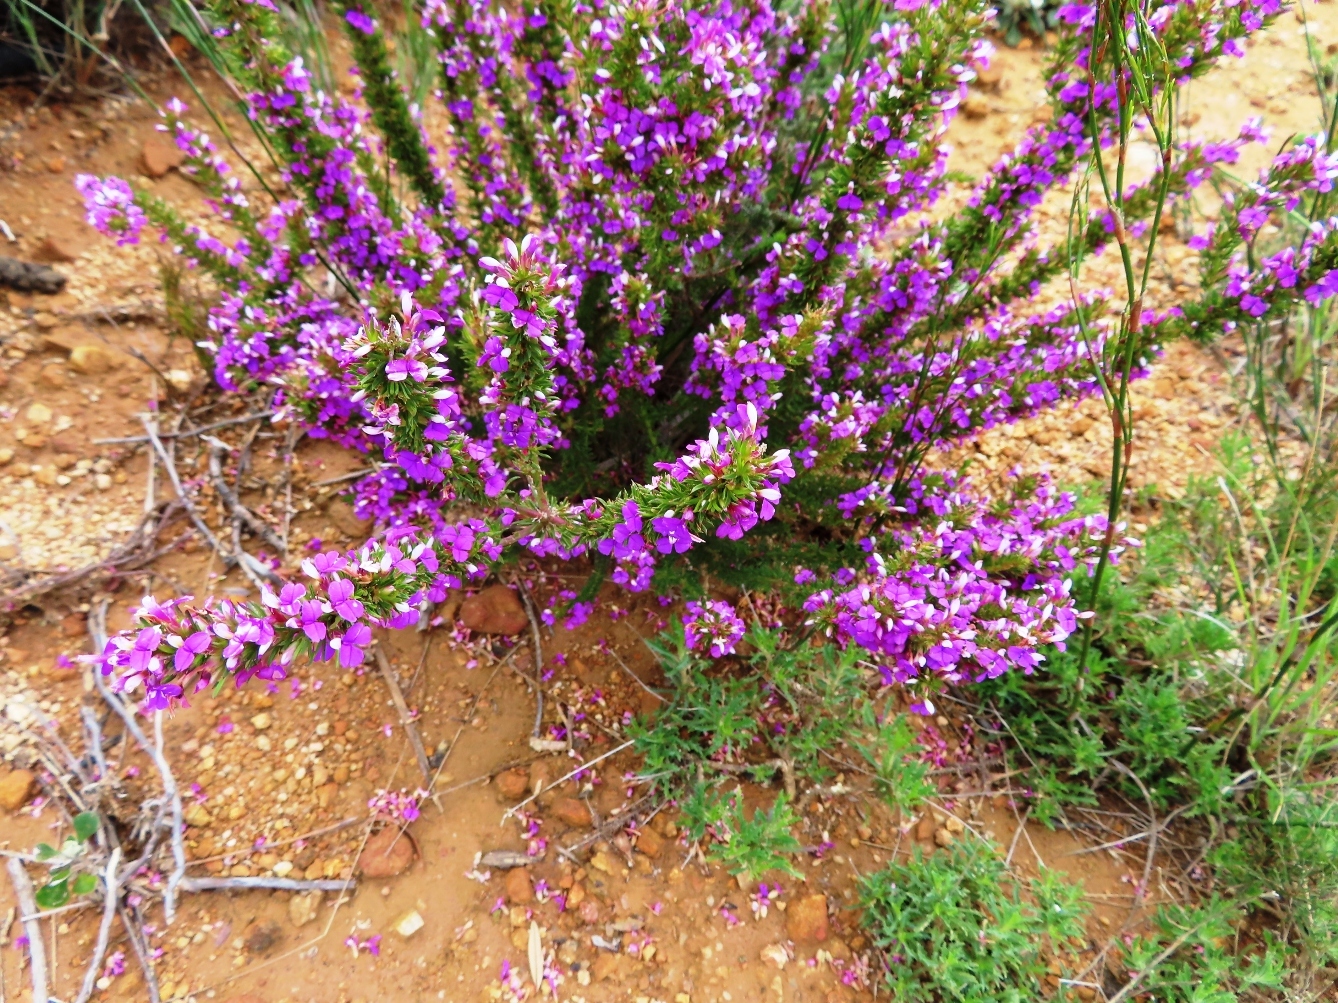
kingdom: Plantae
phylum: Tracheophyta
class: Magnoliopsida
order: Fabales
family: Polygalaceae
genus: Muraltia
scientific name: Muraltia heisteria
